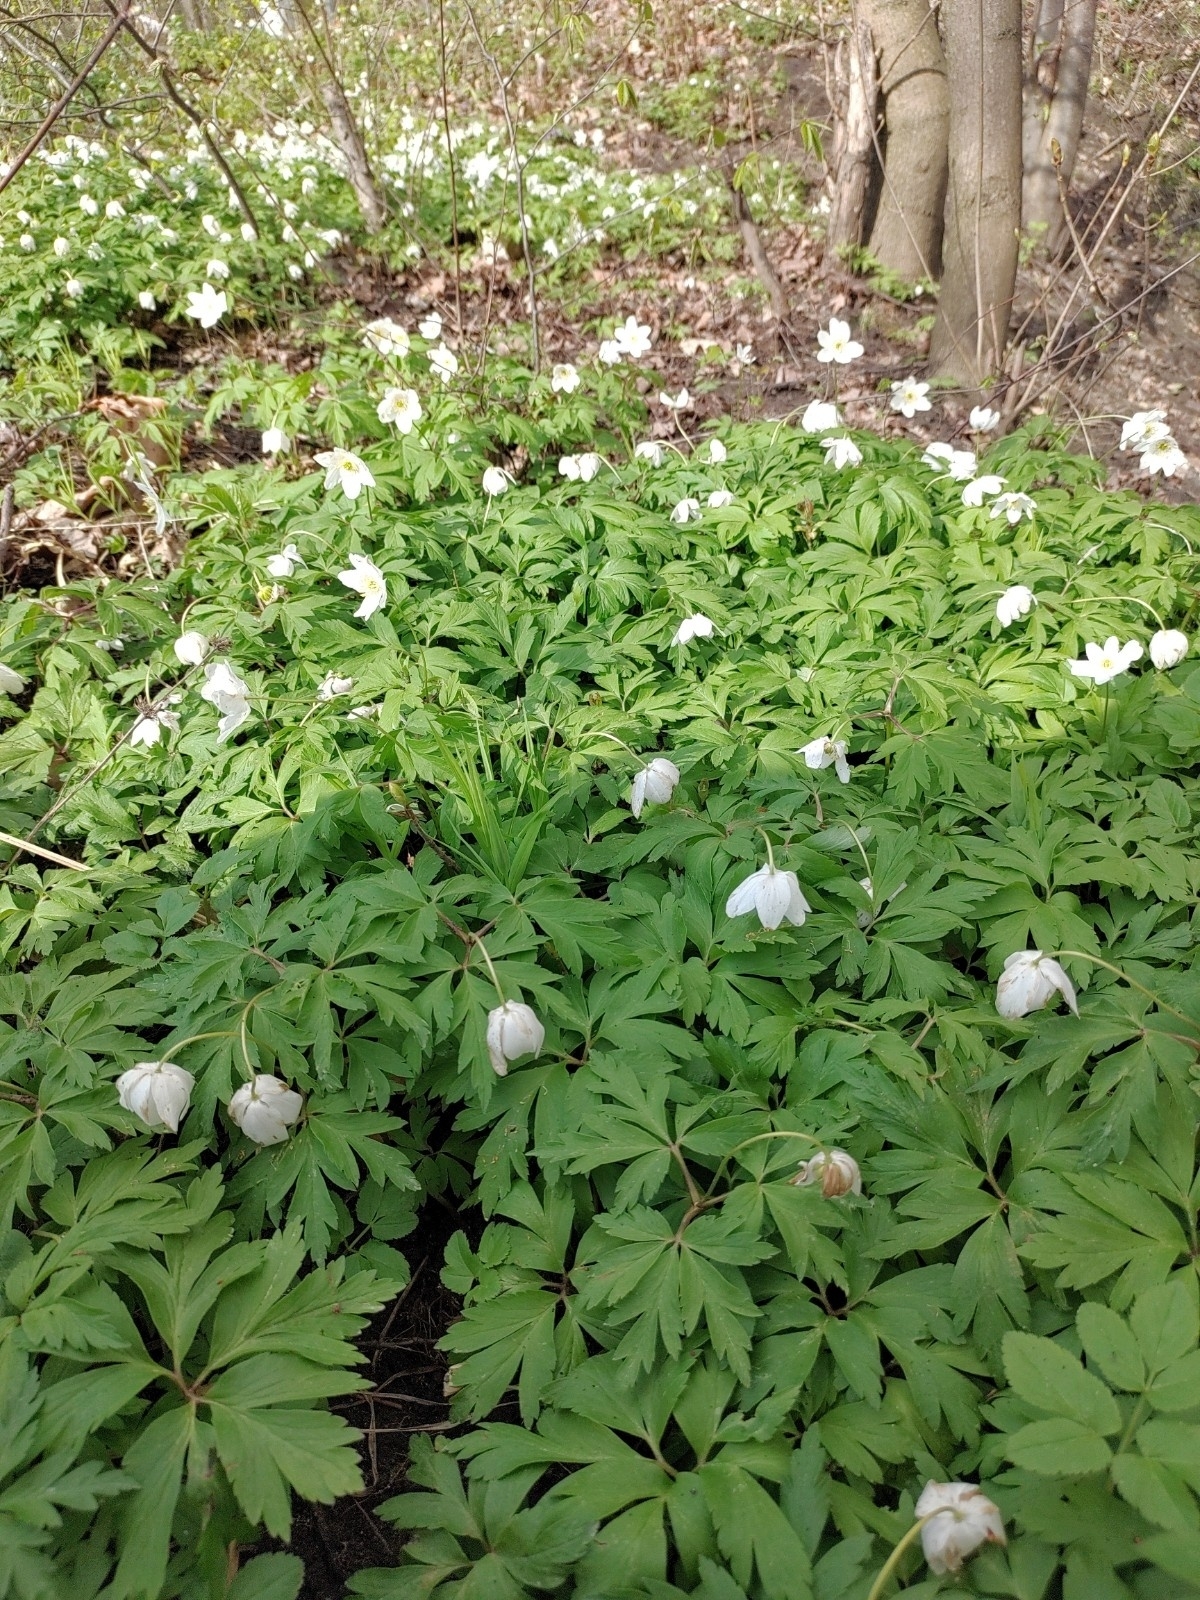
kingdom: Plantae
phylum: Tracheophyta
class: Magnoliopsida
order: Ranunculales
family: Ranunculaceae
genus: Anemone
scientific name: Anemone nemorosa
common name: Wood anemone
